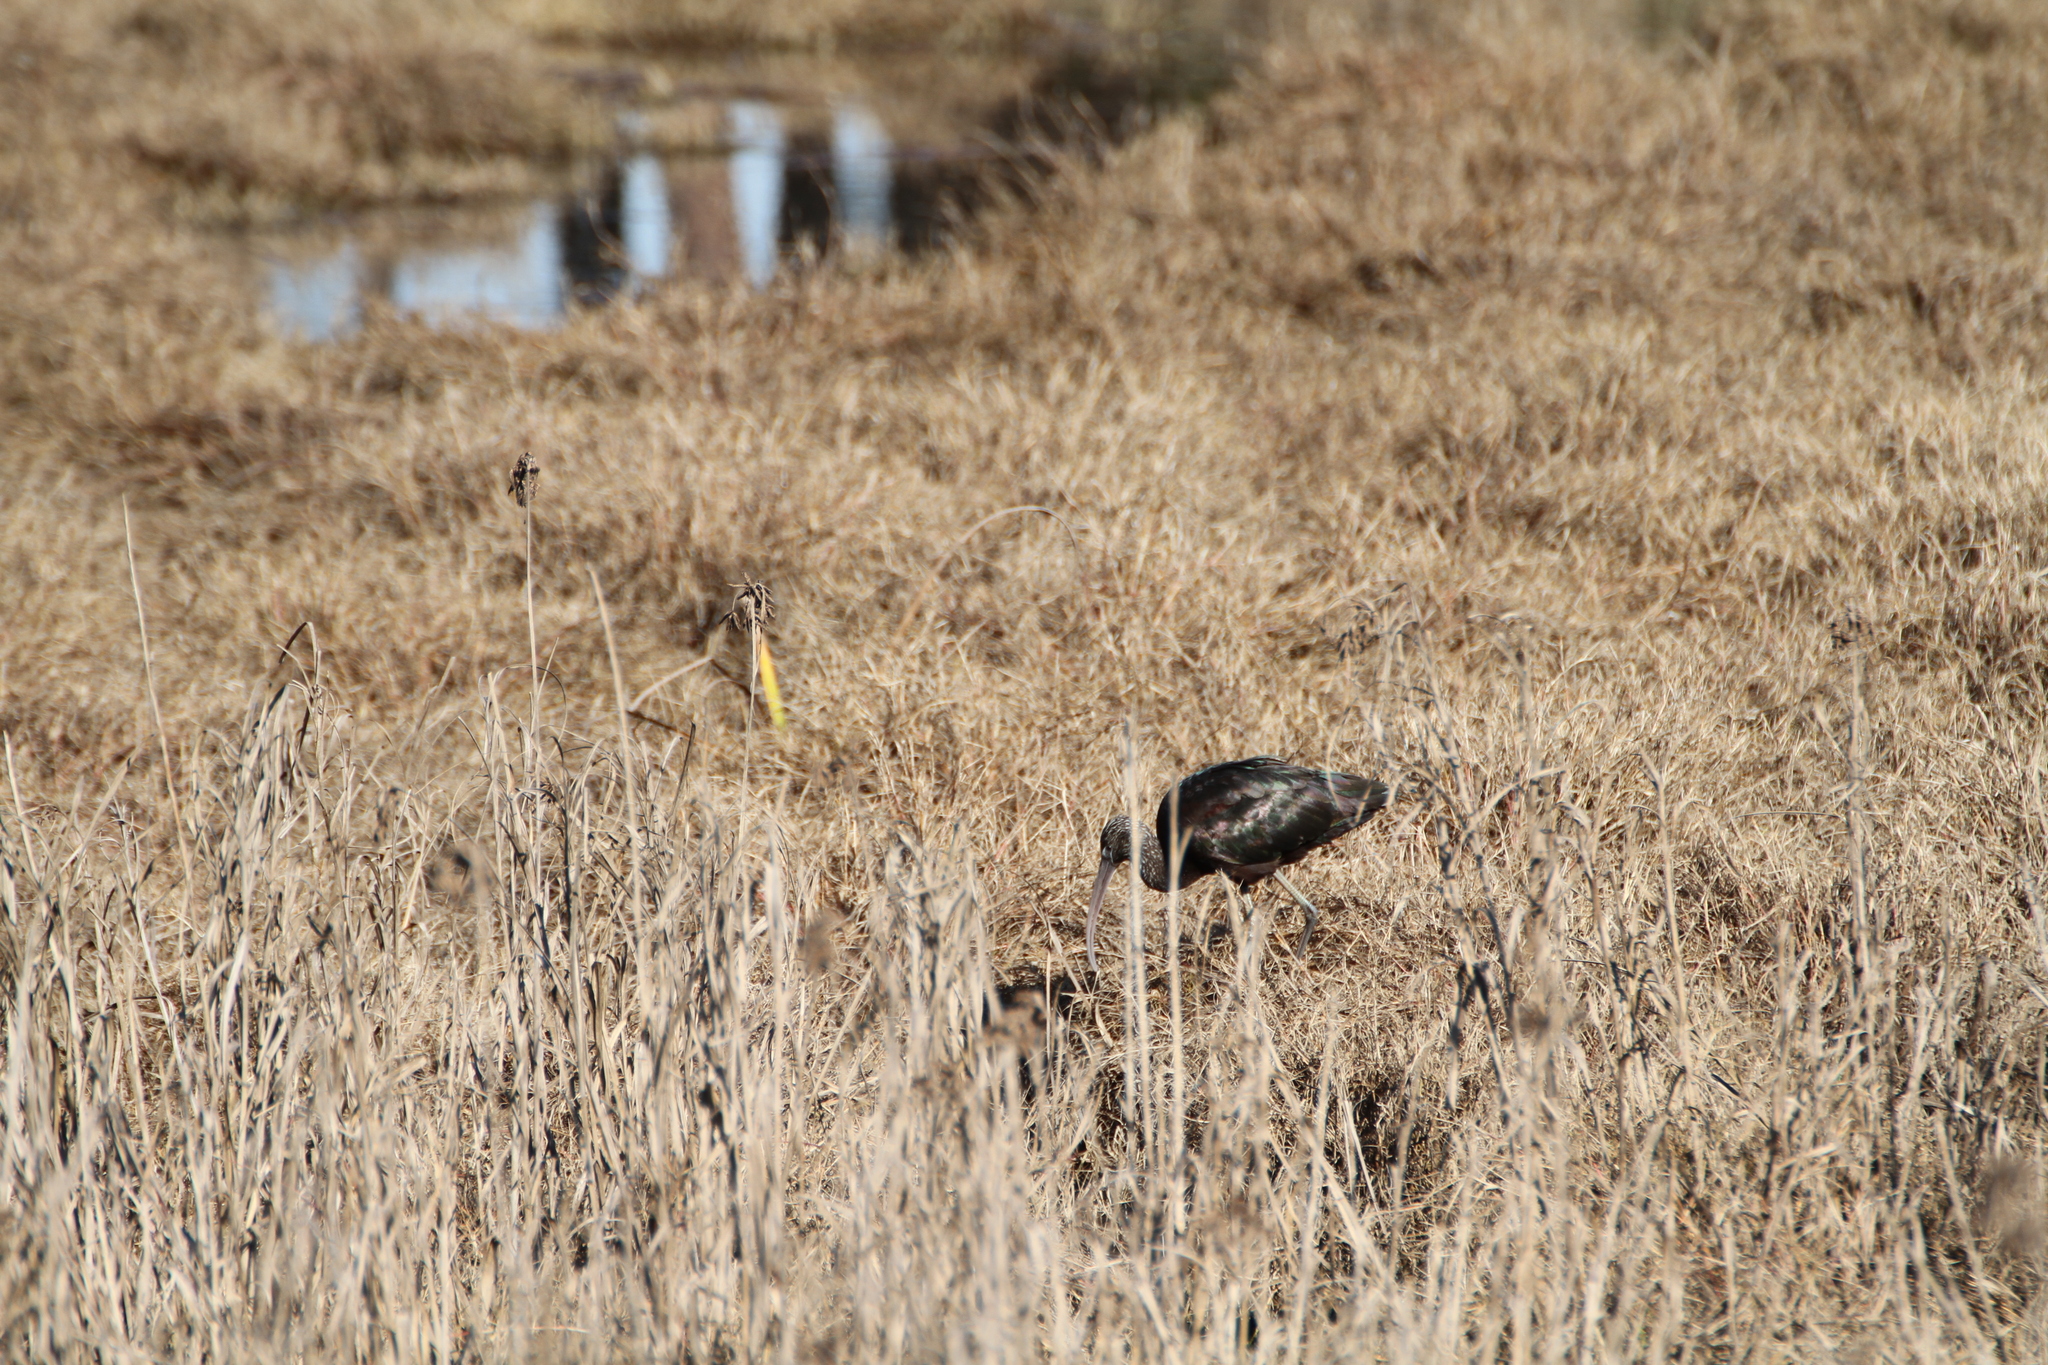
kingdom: Animalia
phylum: Chordata
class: Aves
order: Pelecaniformes
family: Threskiornithidae
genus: Plegadis
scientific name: Plegadis falcinellus
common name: Glossy ibis
